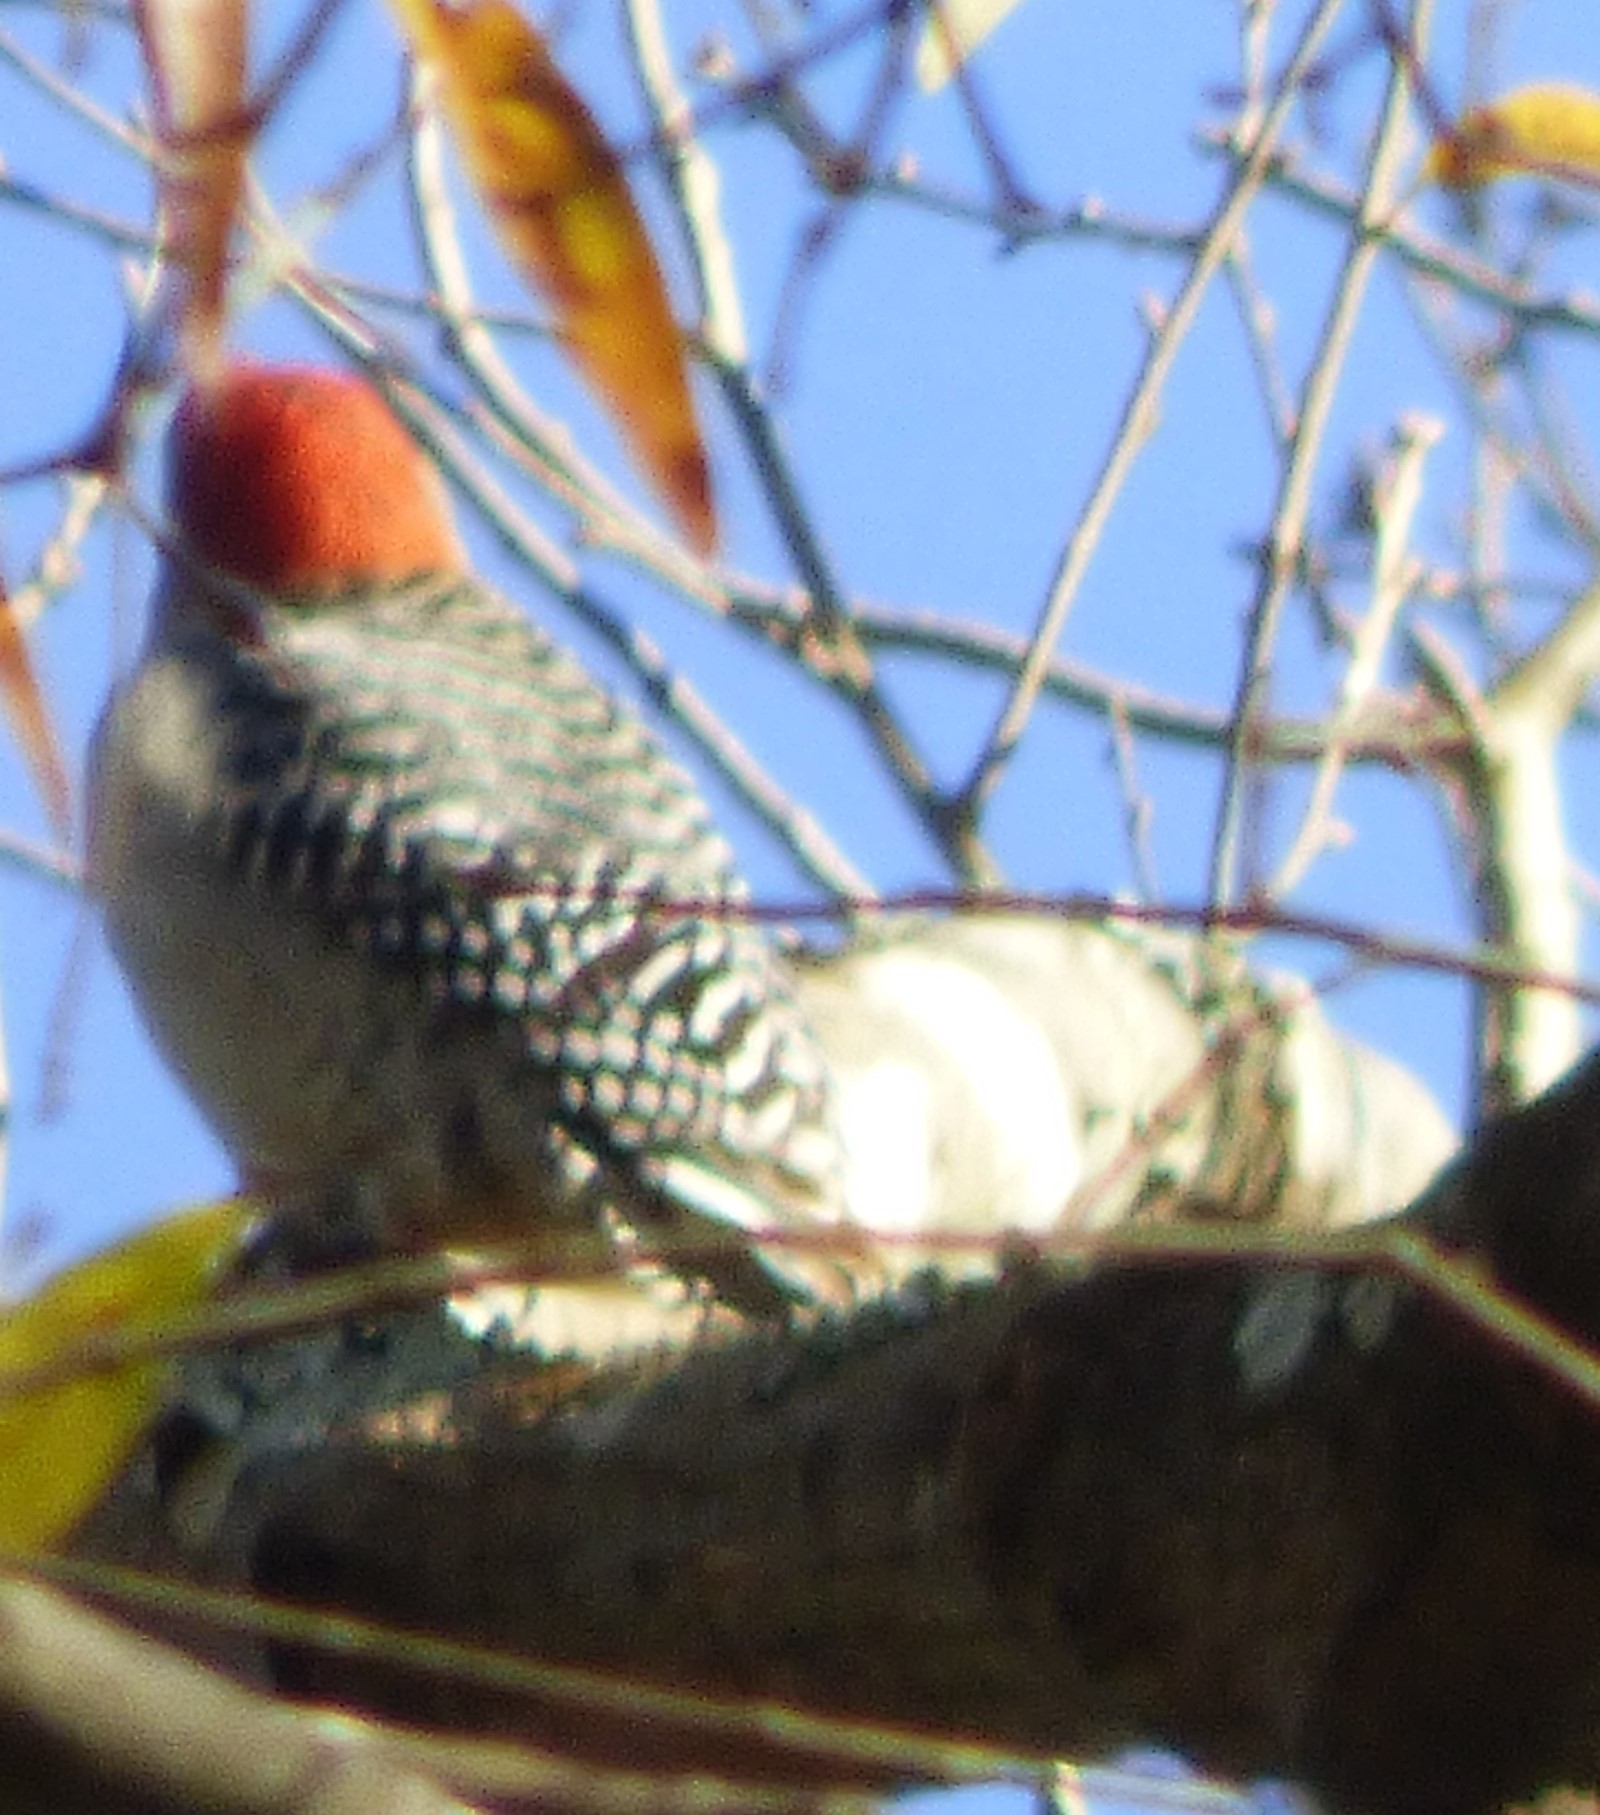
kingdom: Animalia
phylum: Chordata
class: Aves
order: Piciformes
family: Picidae
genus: Melanerpes
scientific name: Melanerpes carolinus
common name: Red-bellied woodpecker
